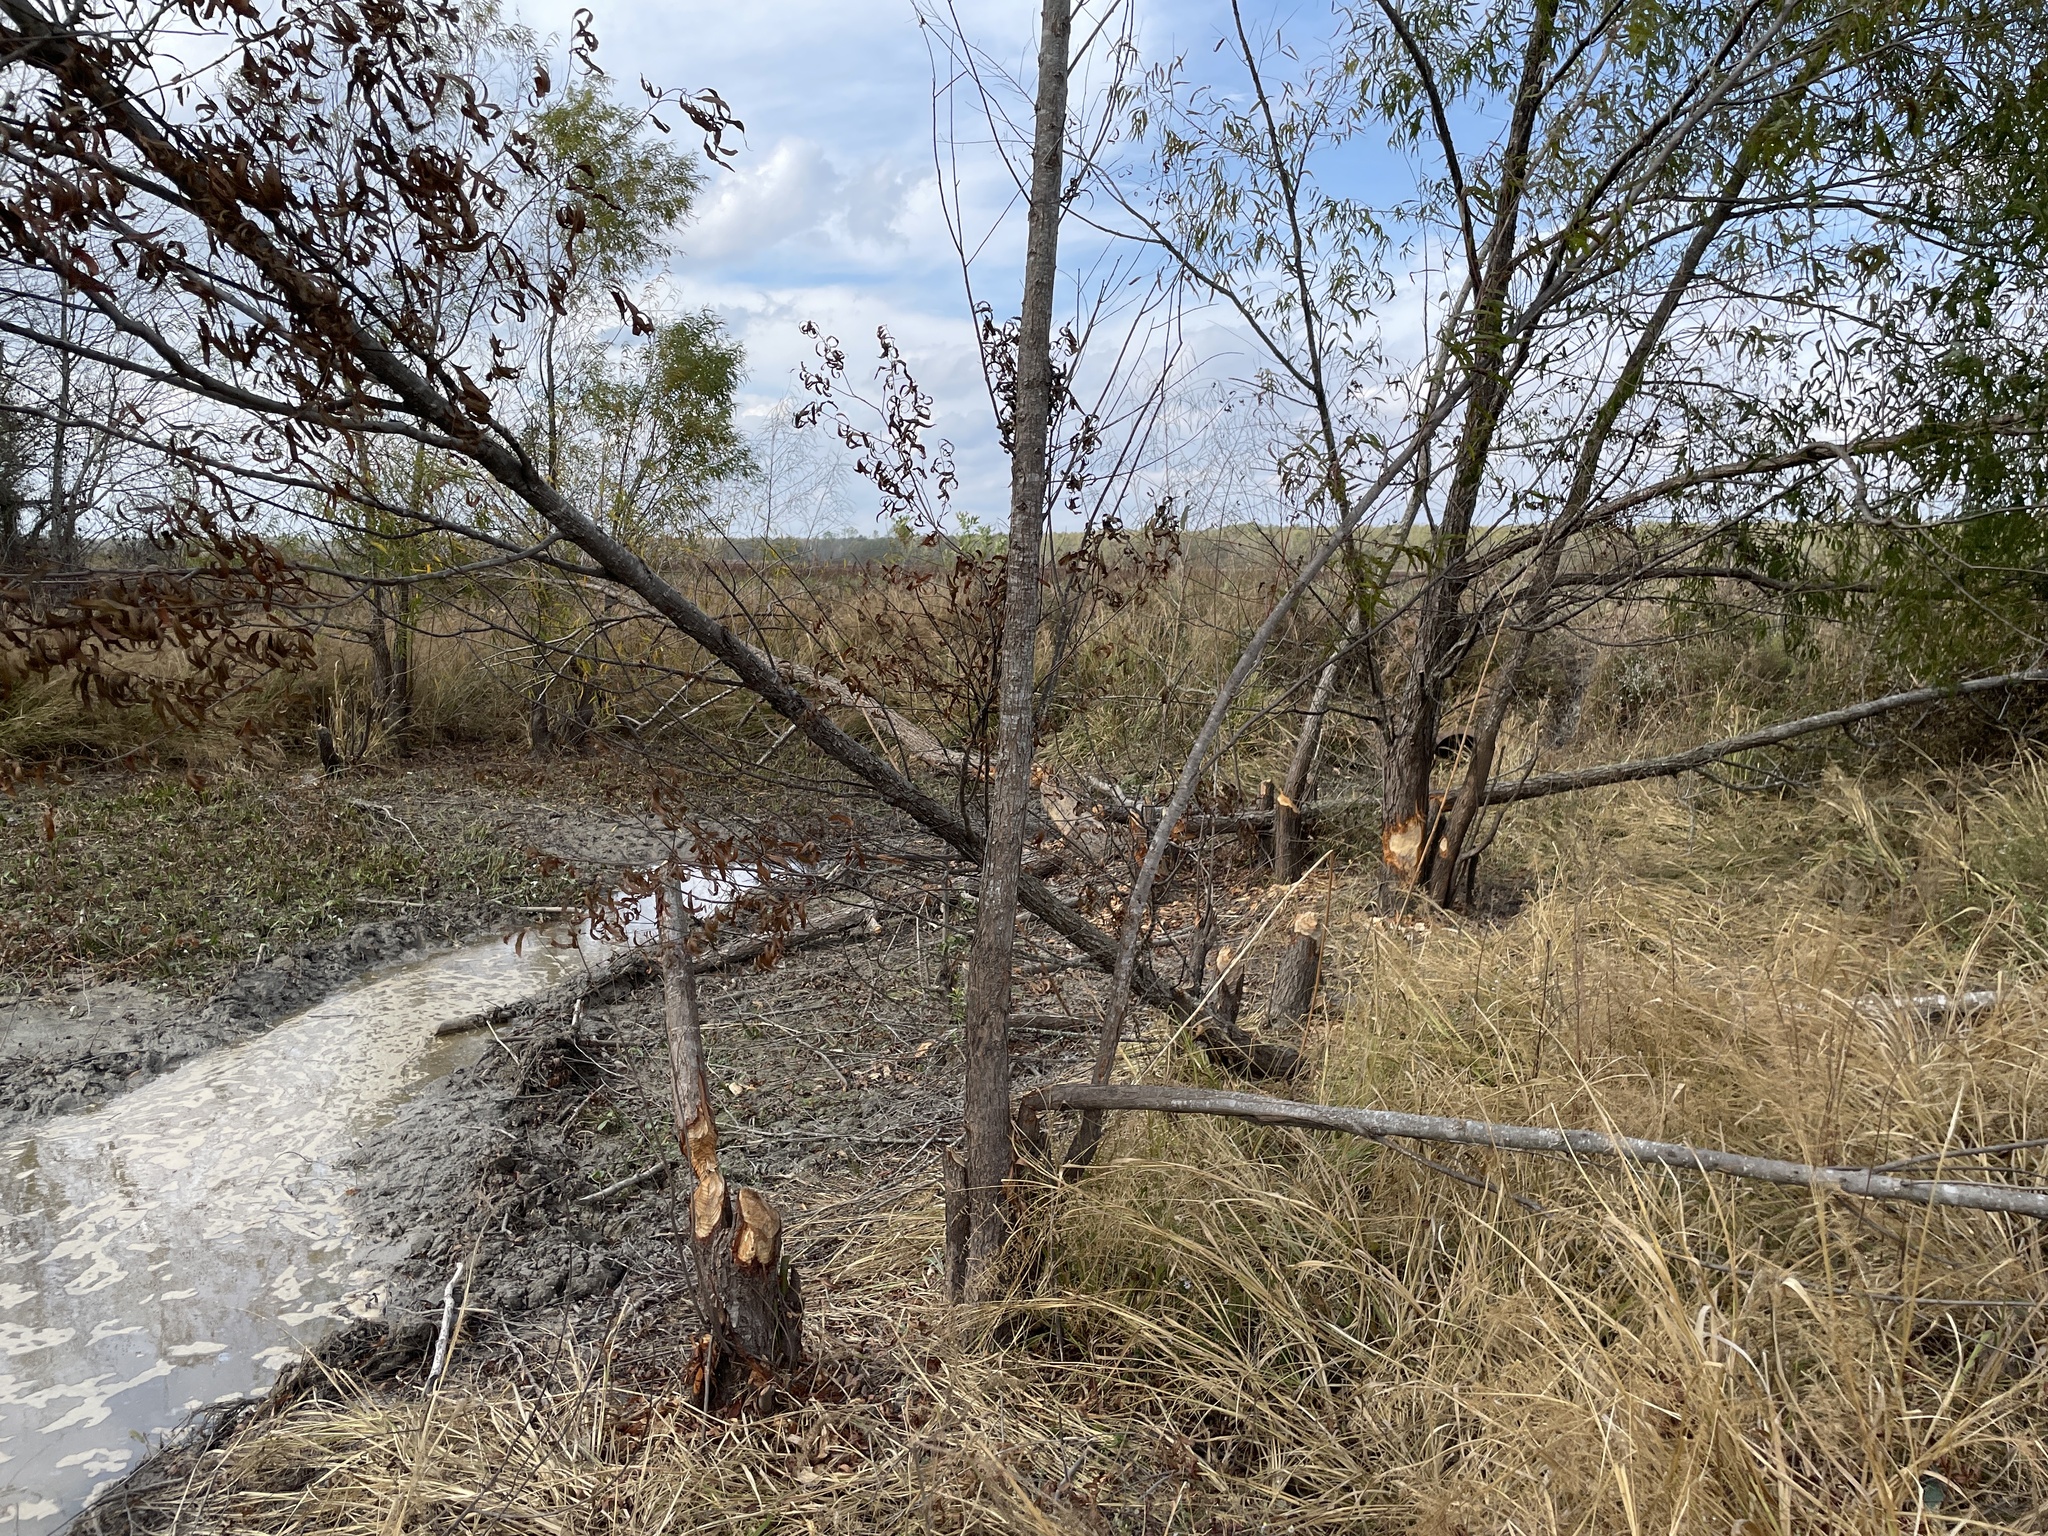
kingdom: Animalia
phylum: Chordata
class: Mammalia
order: Rodentia
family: Castoridae
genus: Castor
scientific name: Castor canadensis
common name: American beaver
